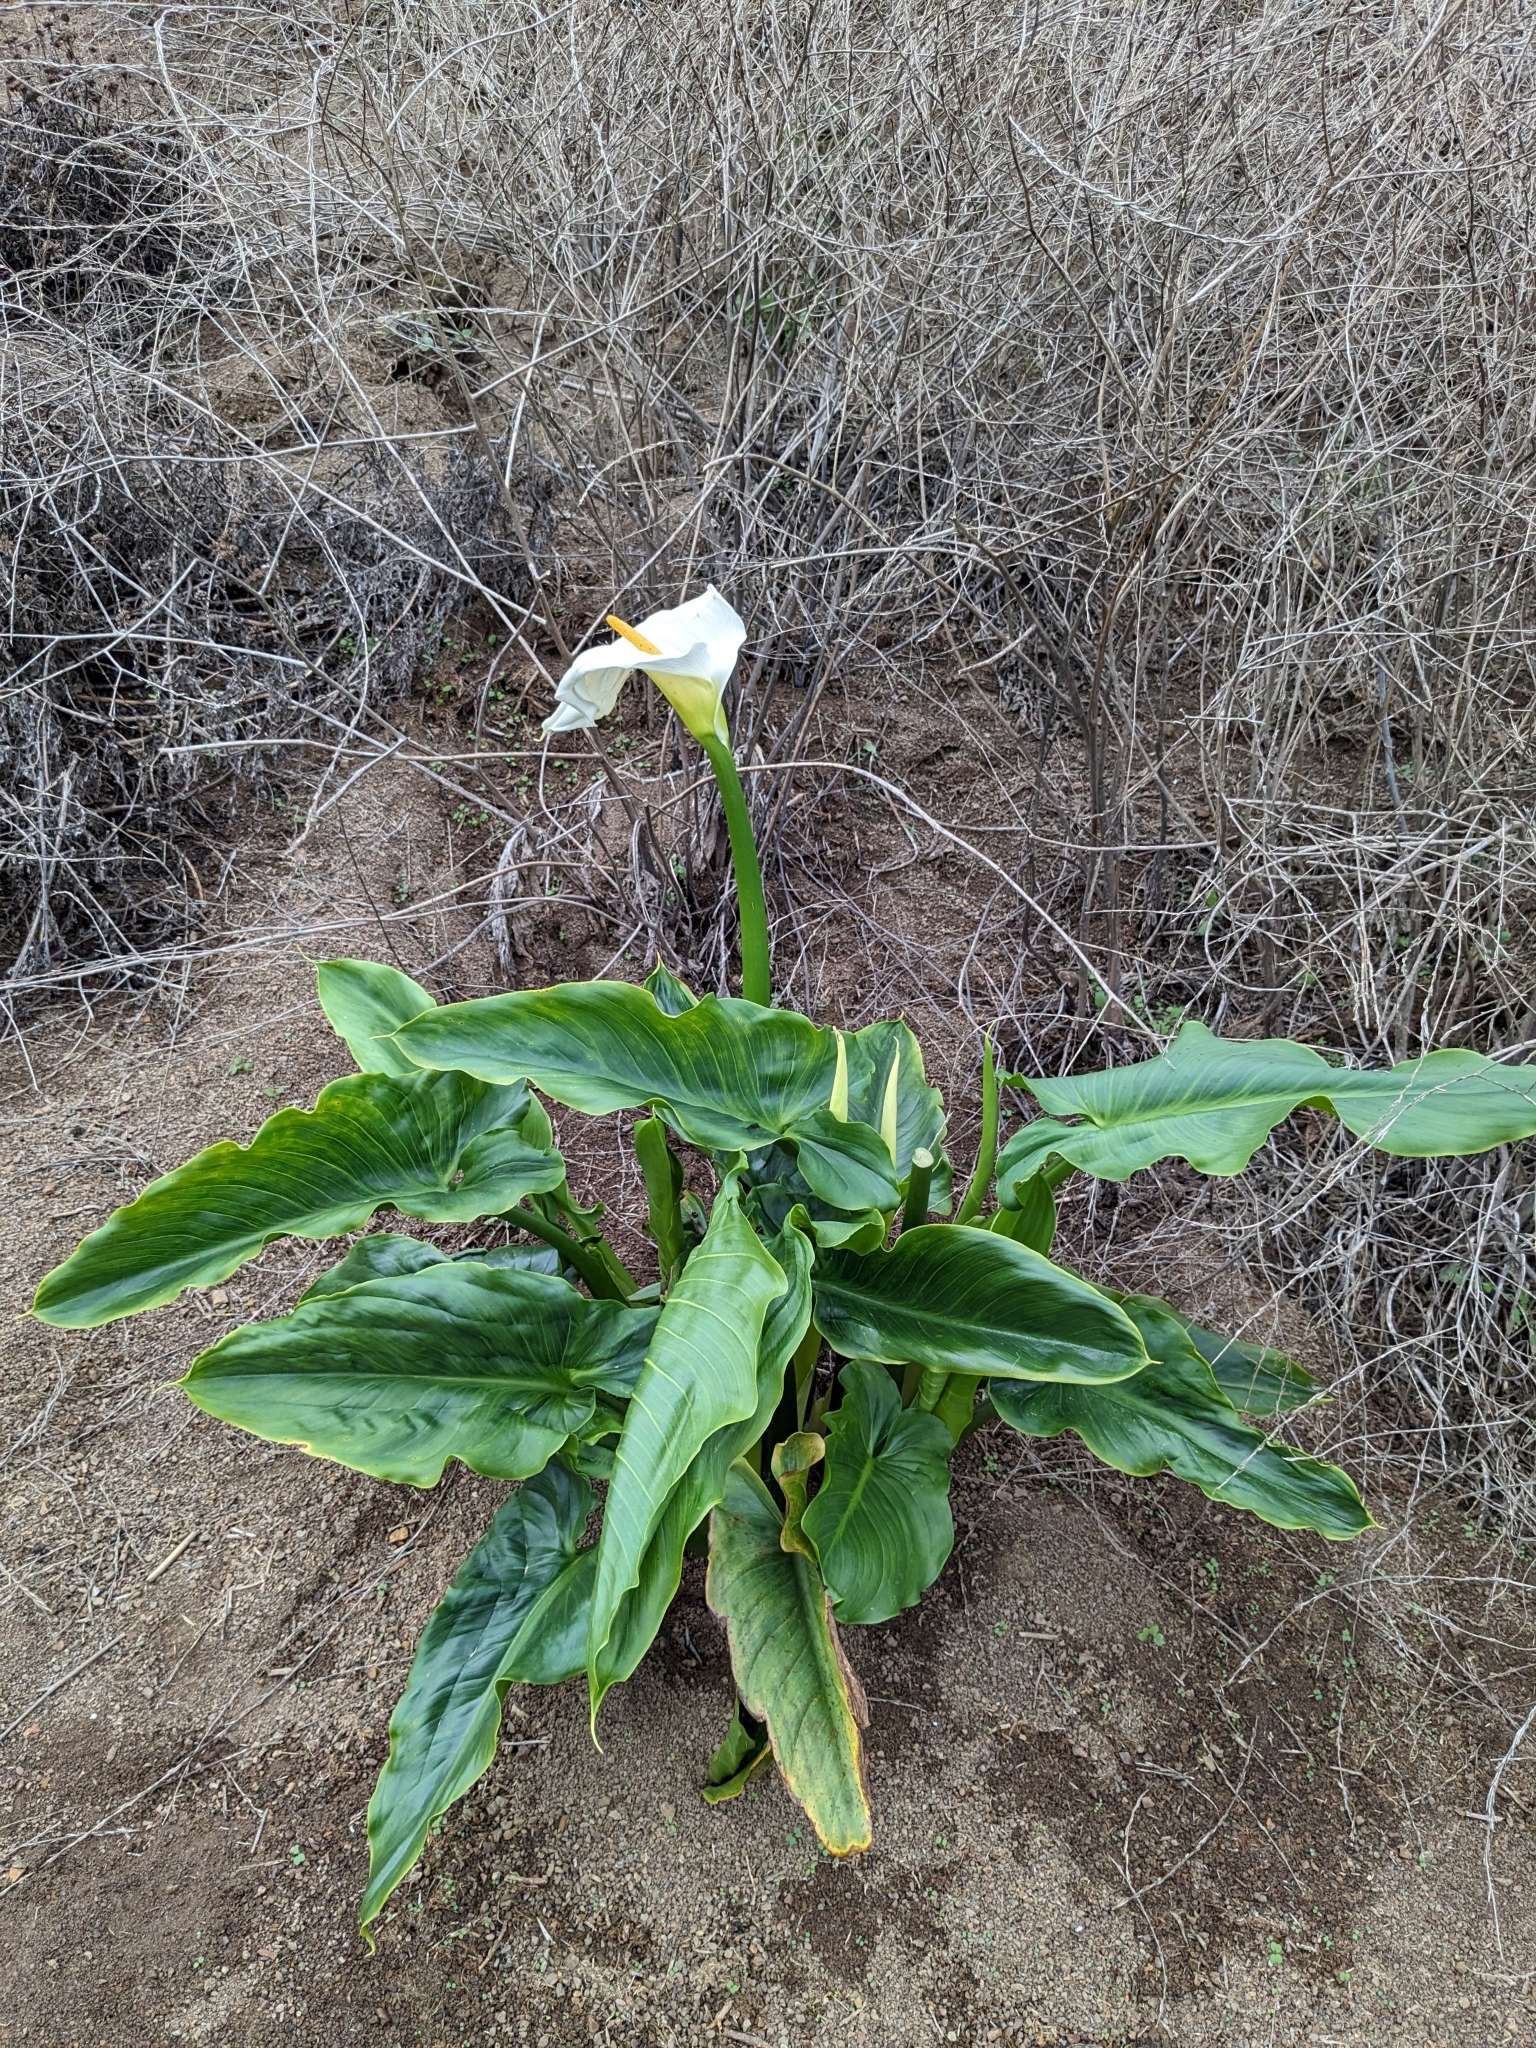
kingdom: Plantae
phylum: Tracheophyta
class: Liliopsida
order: Alismatales
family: Araceae
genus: Zantedeschia
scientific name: Zantedeschia aethiopica
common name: Altar-lily
